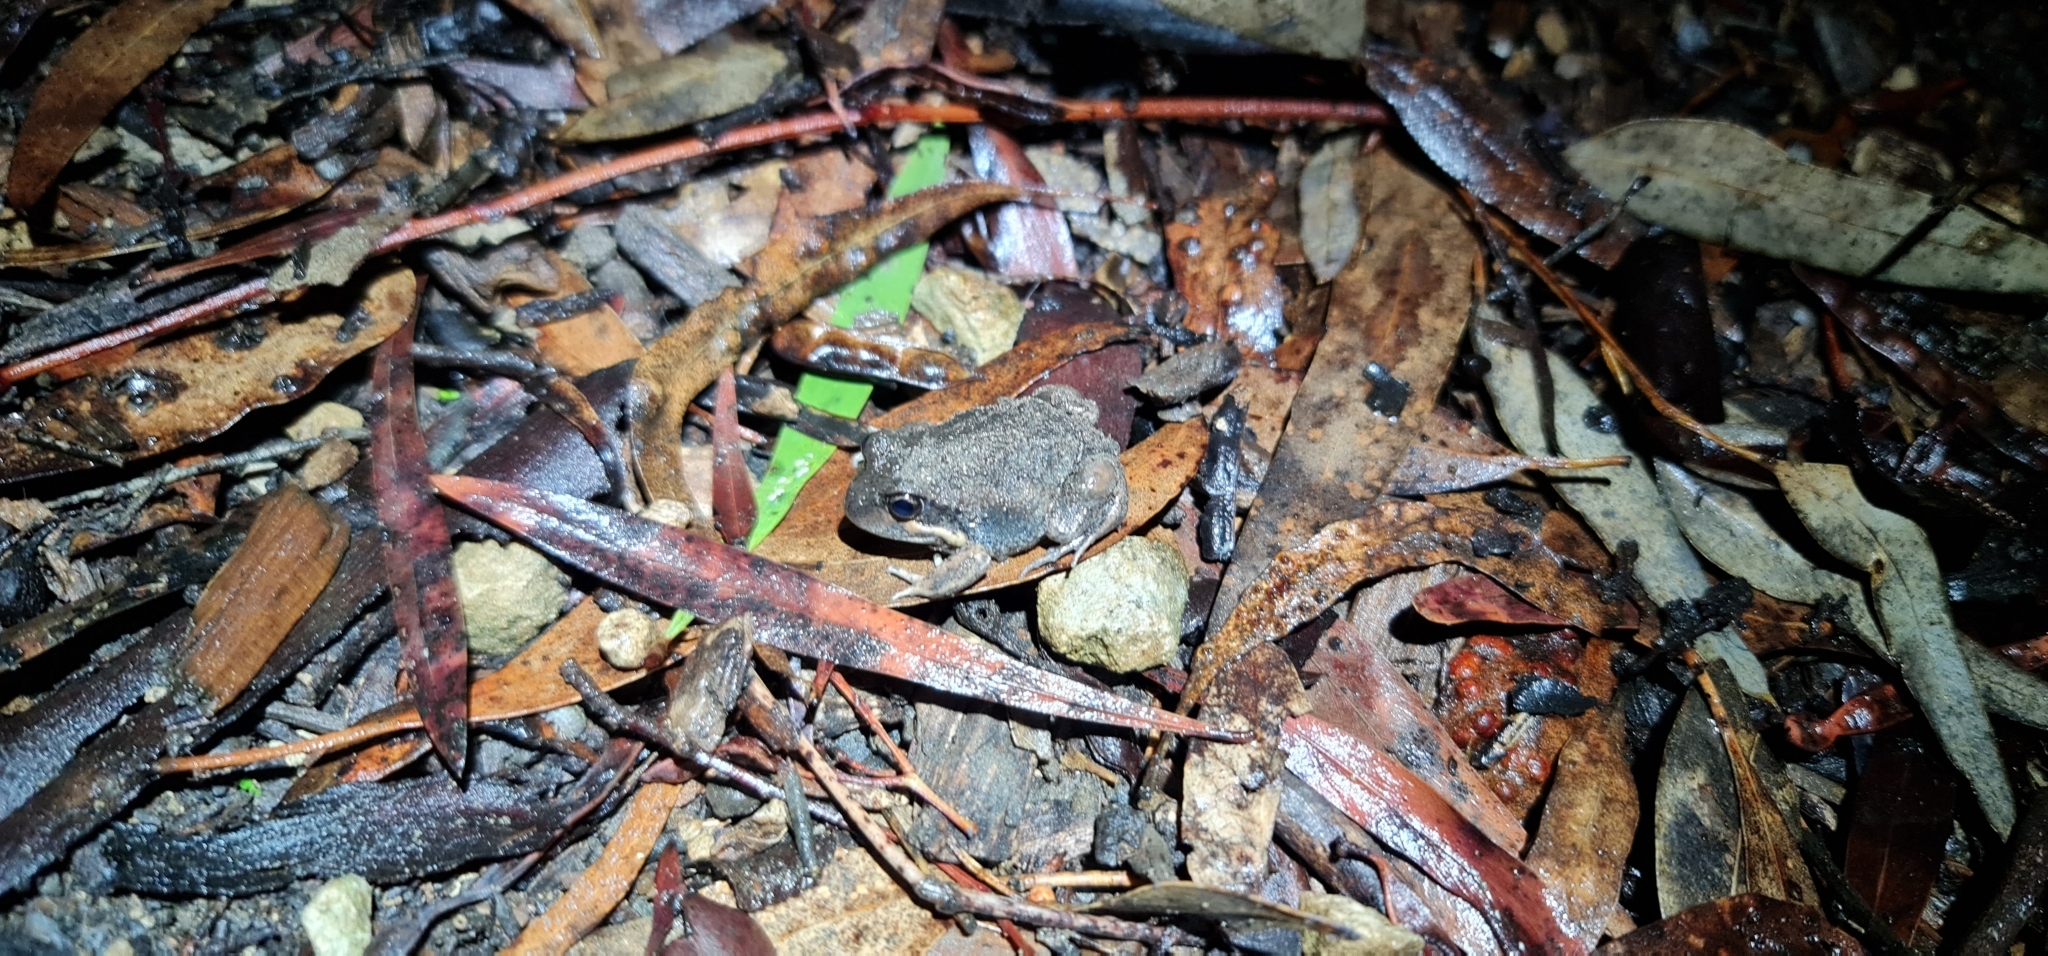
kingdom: Animalia
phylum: Chordata
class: Amphibia
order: Anura
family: Limnodynastidae
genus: Limnodynastes
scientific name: Limnodynastes dumerilii
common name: Banjo frog
